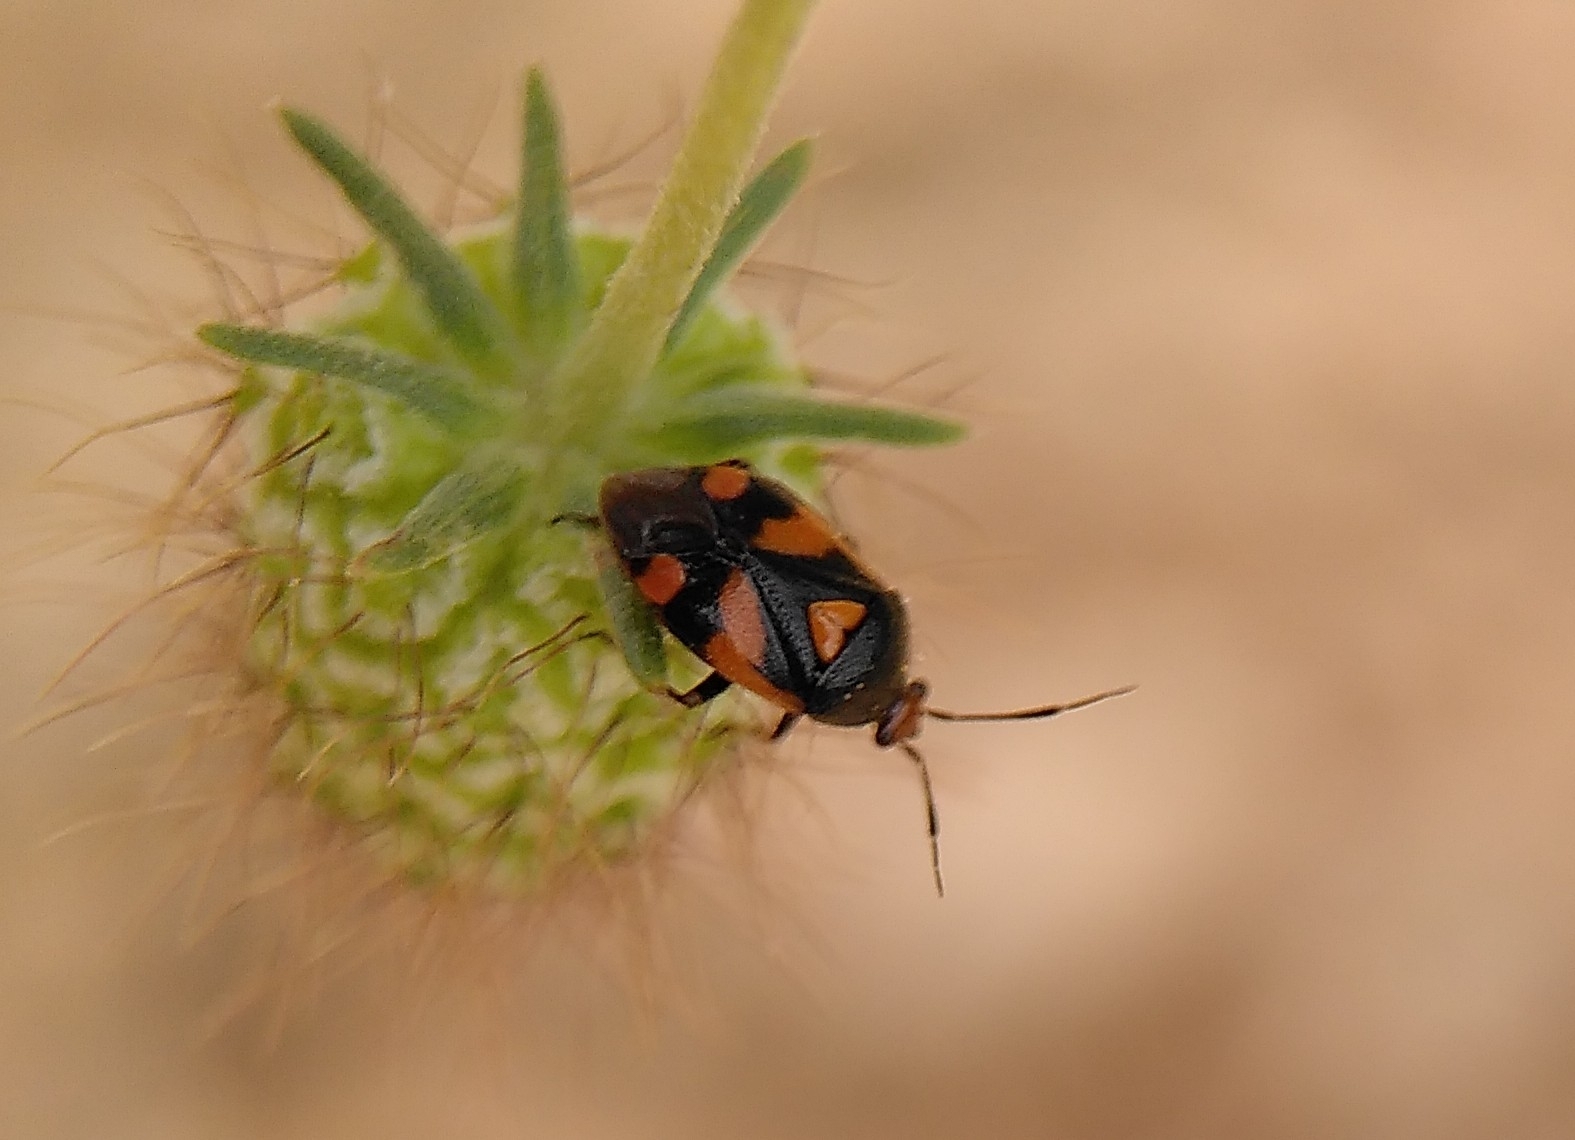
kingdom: Animalia
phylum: Arthropoda
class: Insecta
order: Hemiptera
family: Miridae
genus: Deraeocoris
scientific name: Deraeocoris schach
